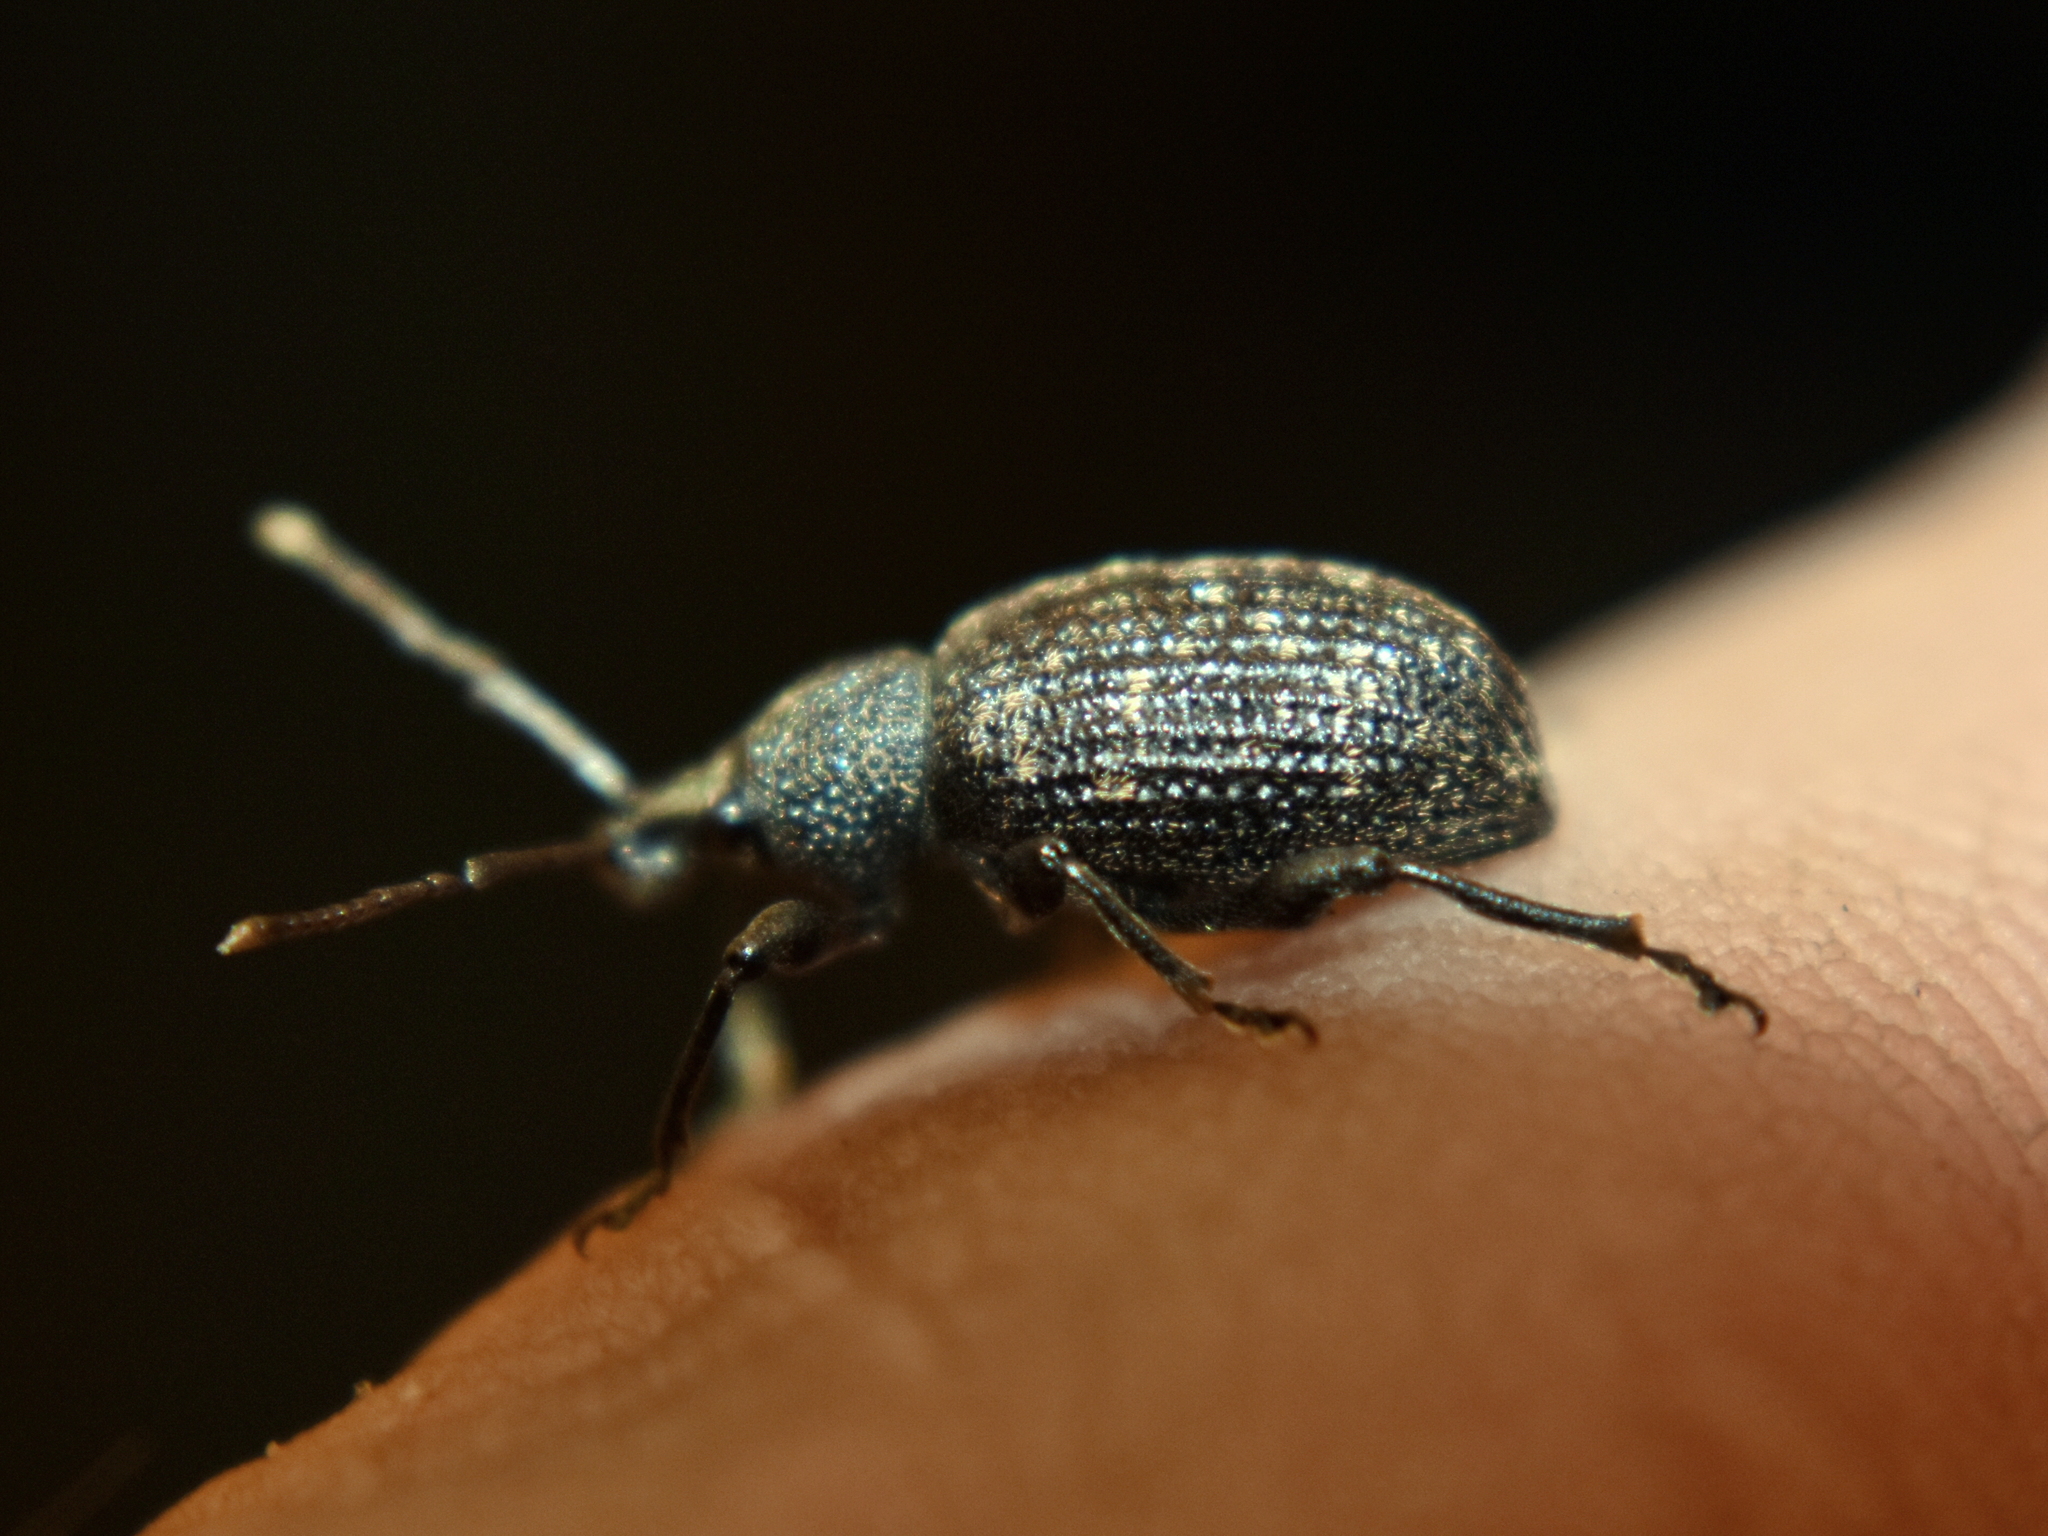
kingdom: Animalia
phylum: Arthropoda
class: Insecta
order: Coleoptera
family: Curculionidae
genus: Otiorhynchus
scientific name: Otiorhynchus sulcatus
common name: Black vine weevil
